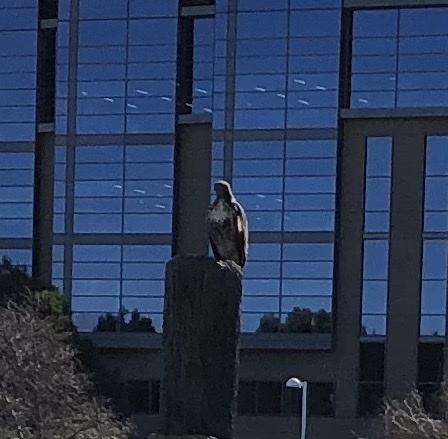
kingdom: Animalia
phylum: Chordata
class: Aves
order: Accipitriformes
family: Accipitridae
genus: Buteo
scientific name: Buteo jamaicensis
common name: Red-tailed hawk
